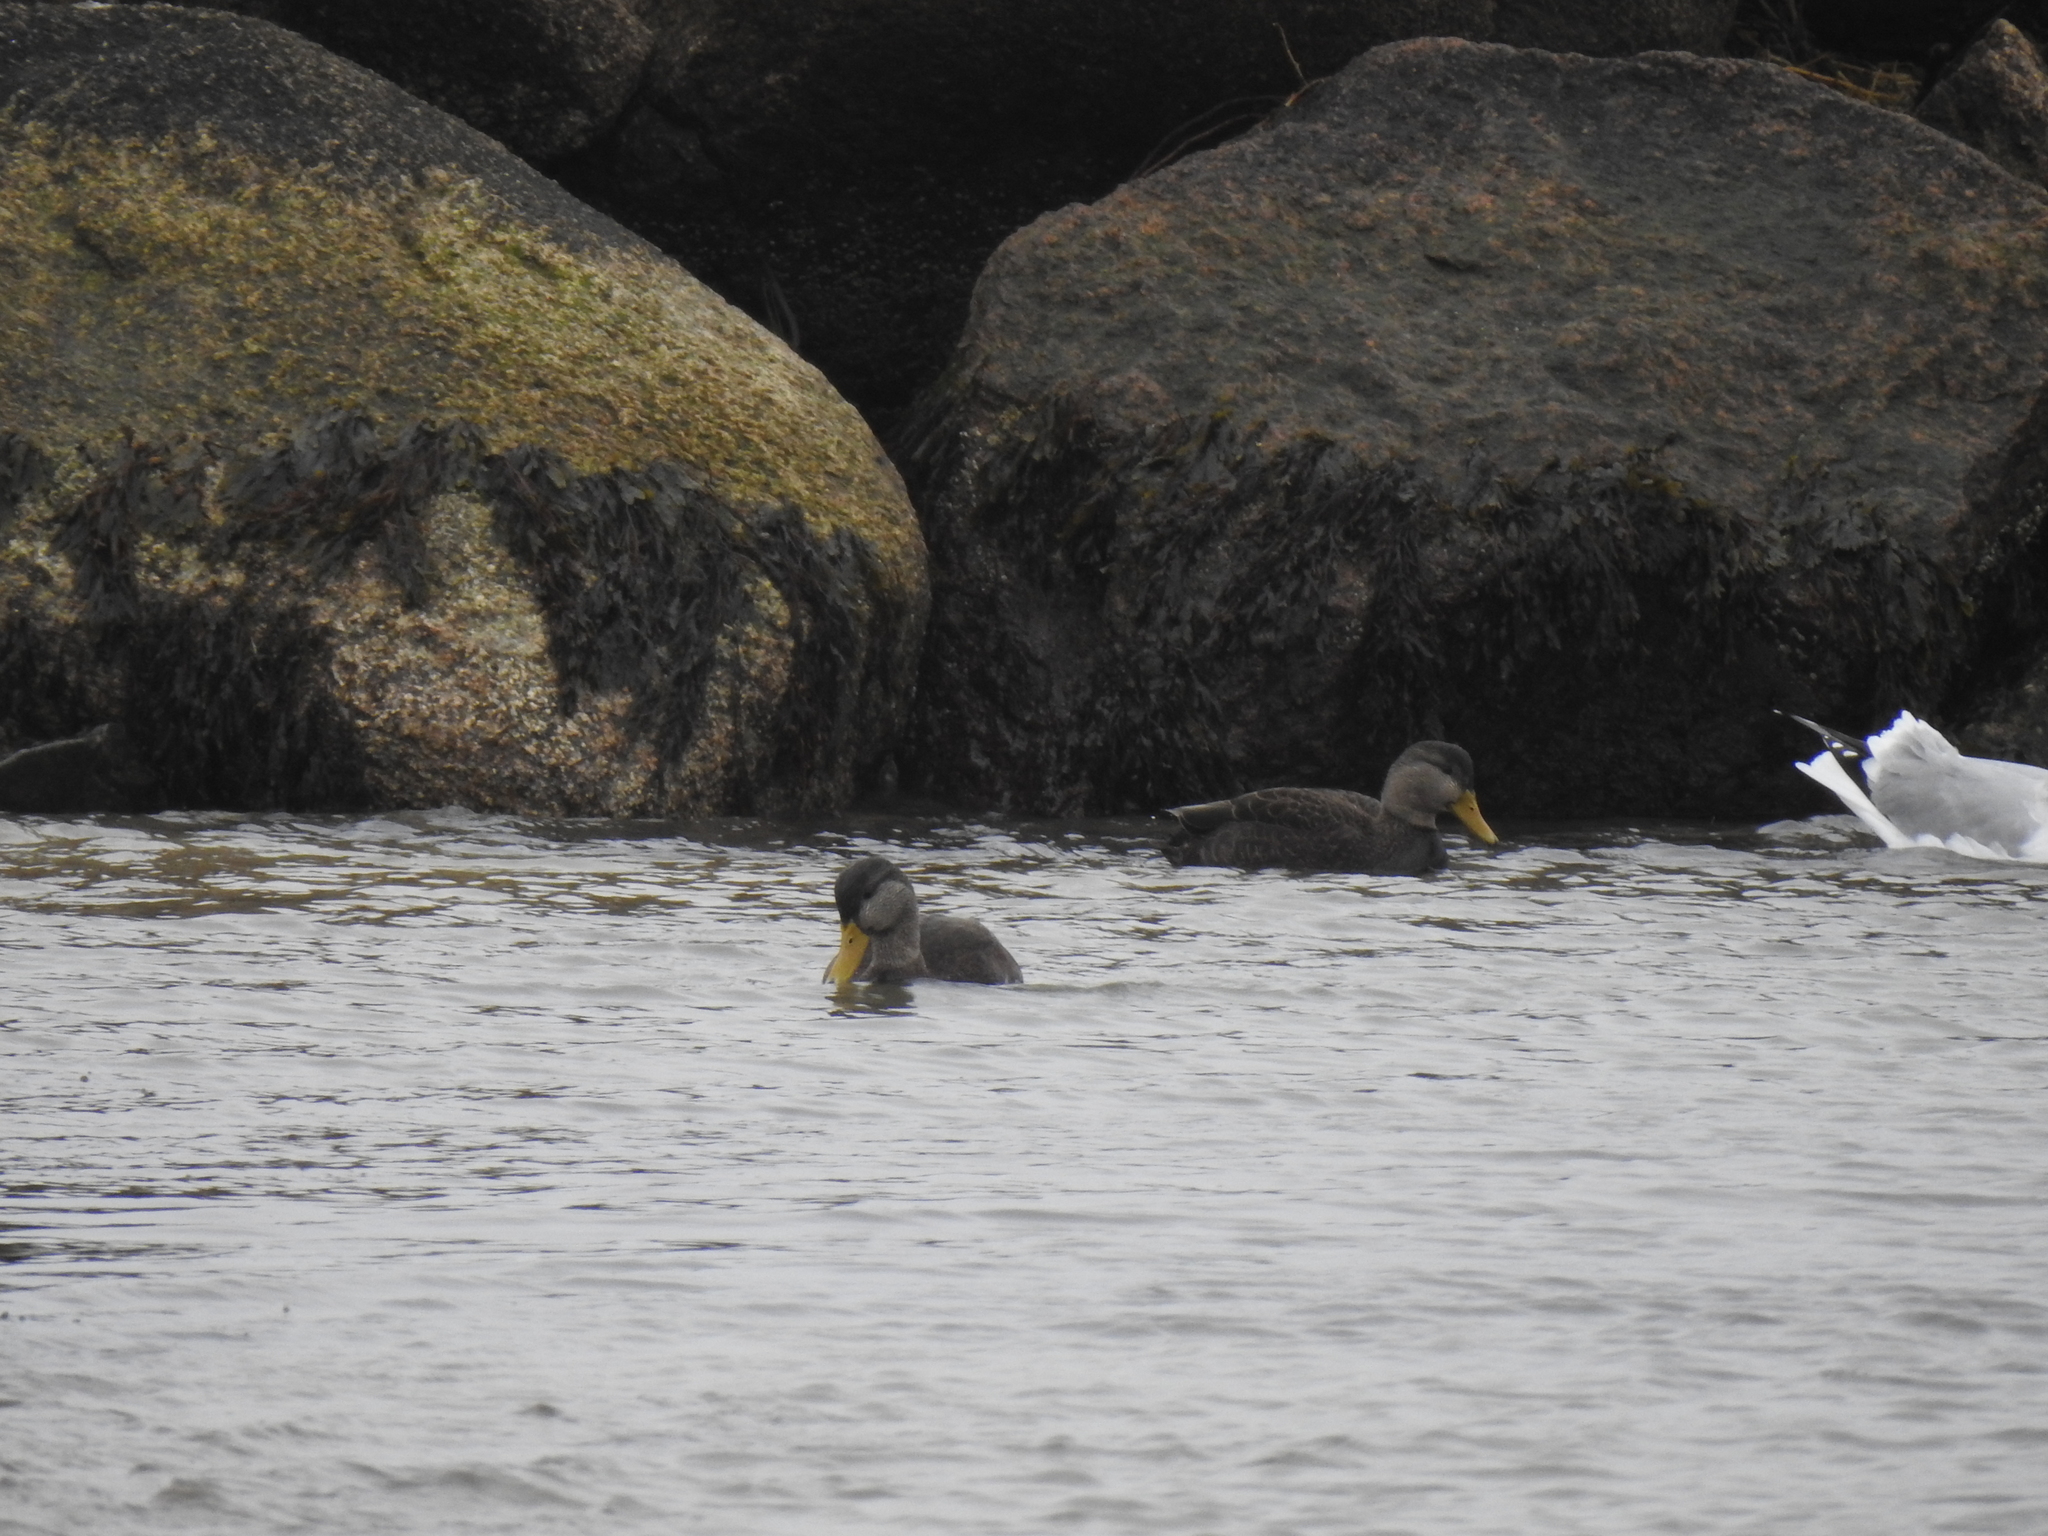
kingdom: Animalia
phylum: Chordata
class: Aves
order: Anseriformes
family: Anatidae
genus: Anas
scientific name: Anas rubripes
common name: American black duck
